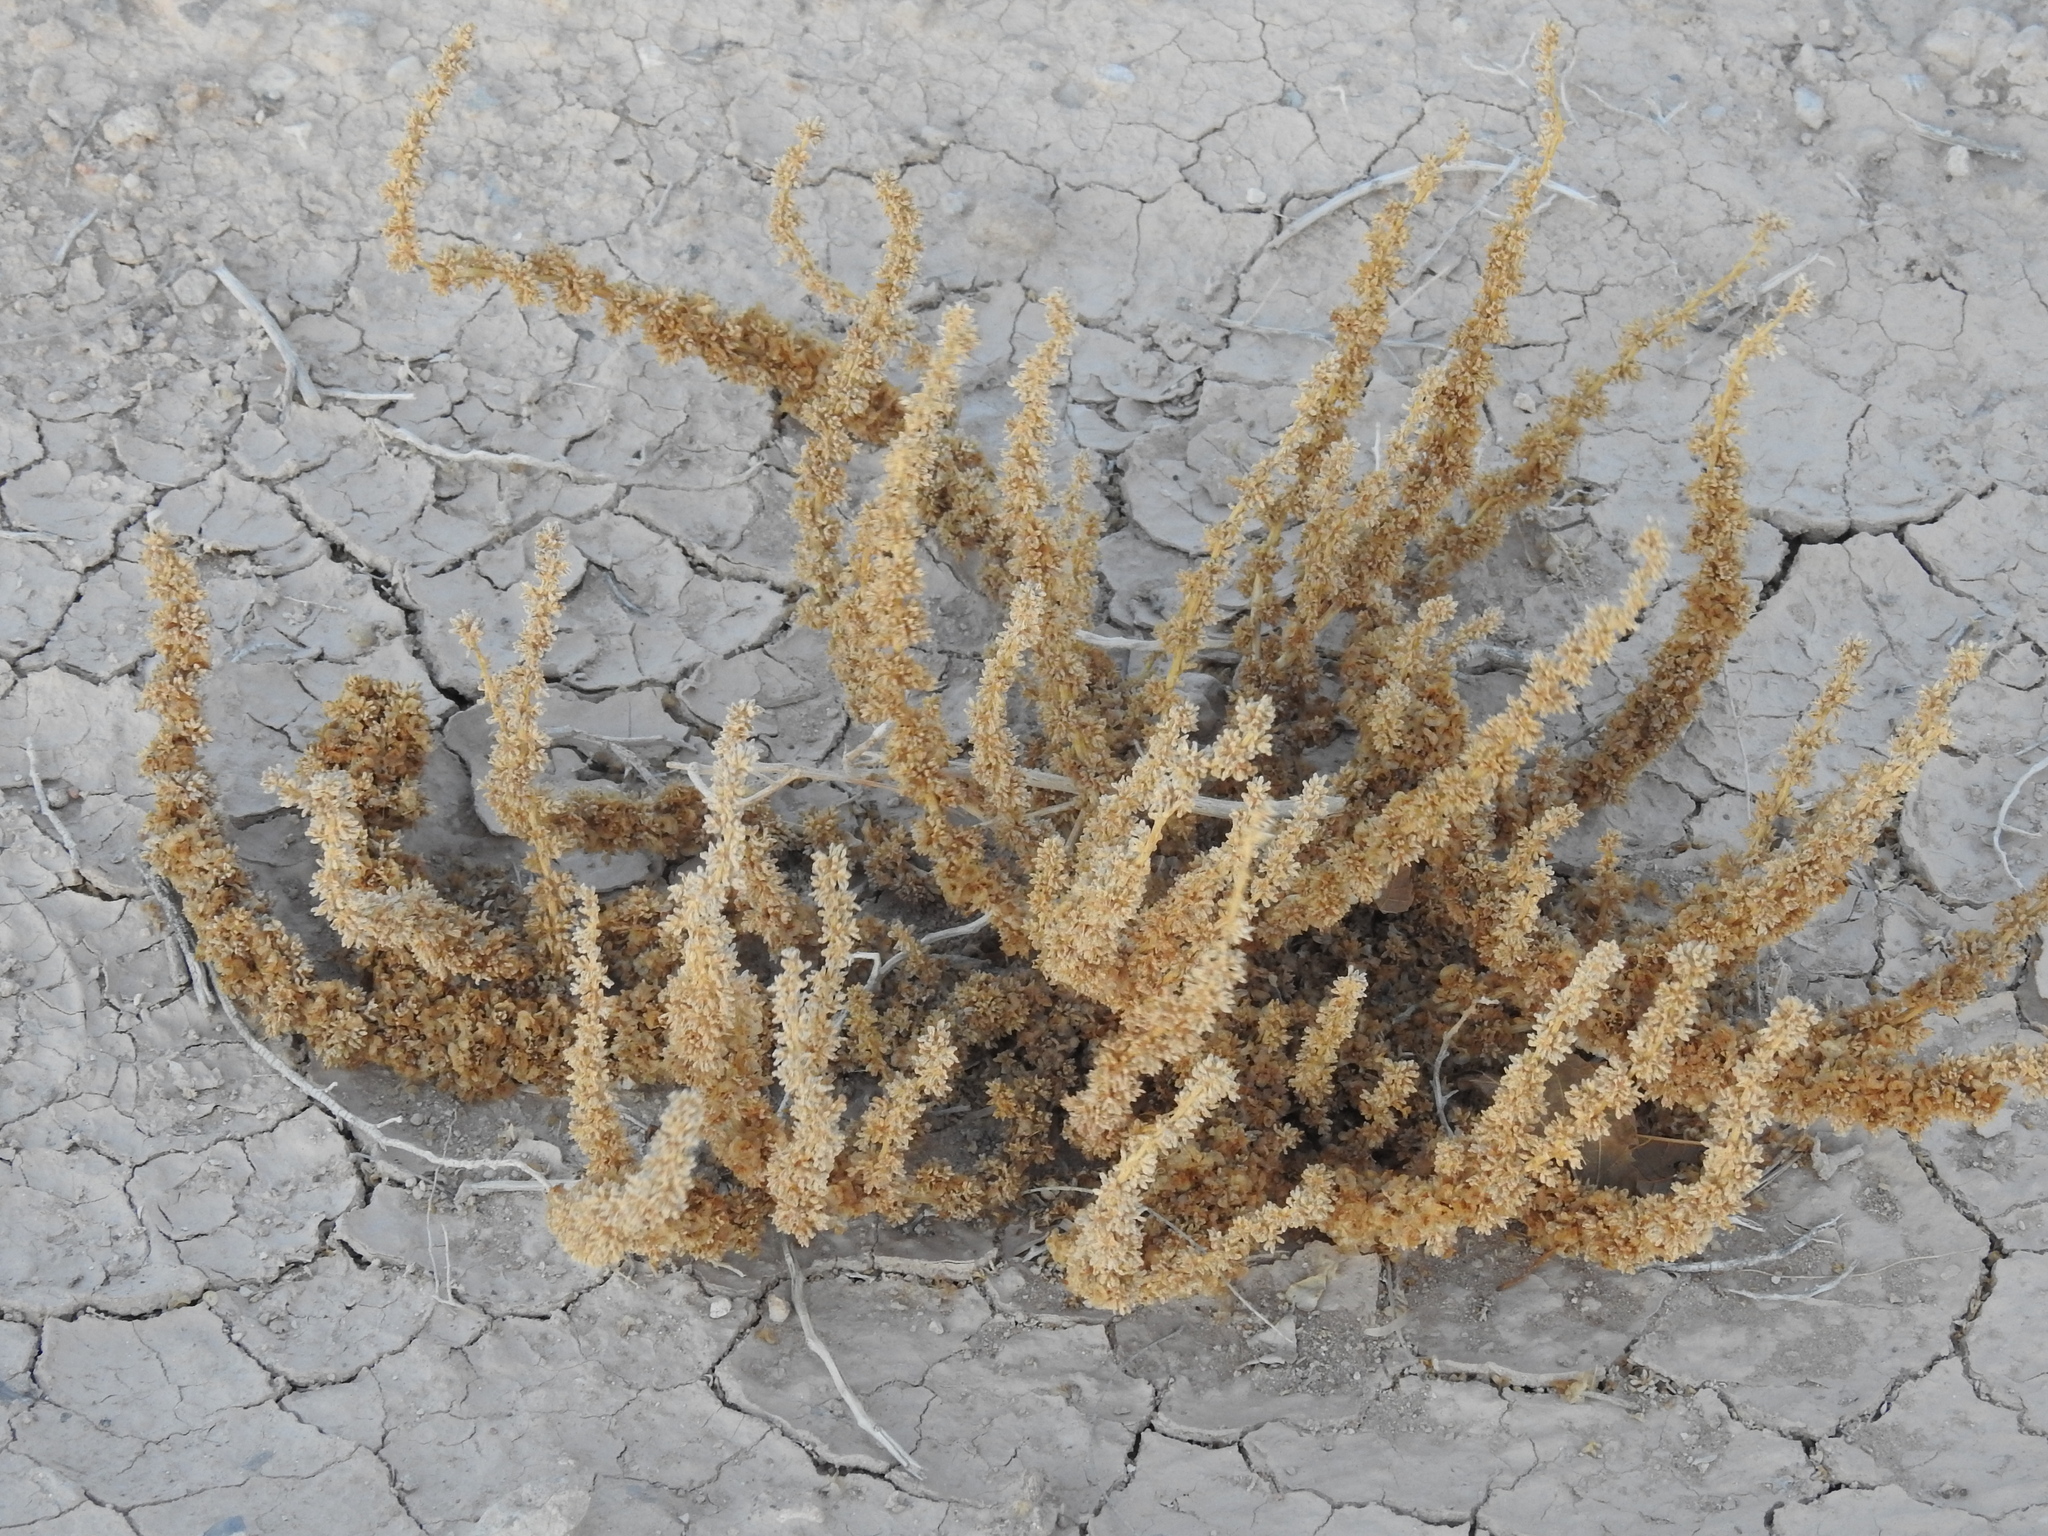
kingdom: Plantae
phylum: Tracheophyta
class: Magnoliopsida
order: Caryophyllales
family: Amaranthaceae
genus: Halogeton
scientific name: Halogeton glomeratus
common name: Saltlover
